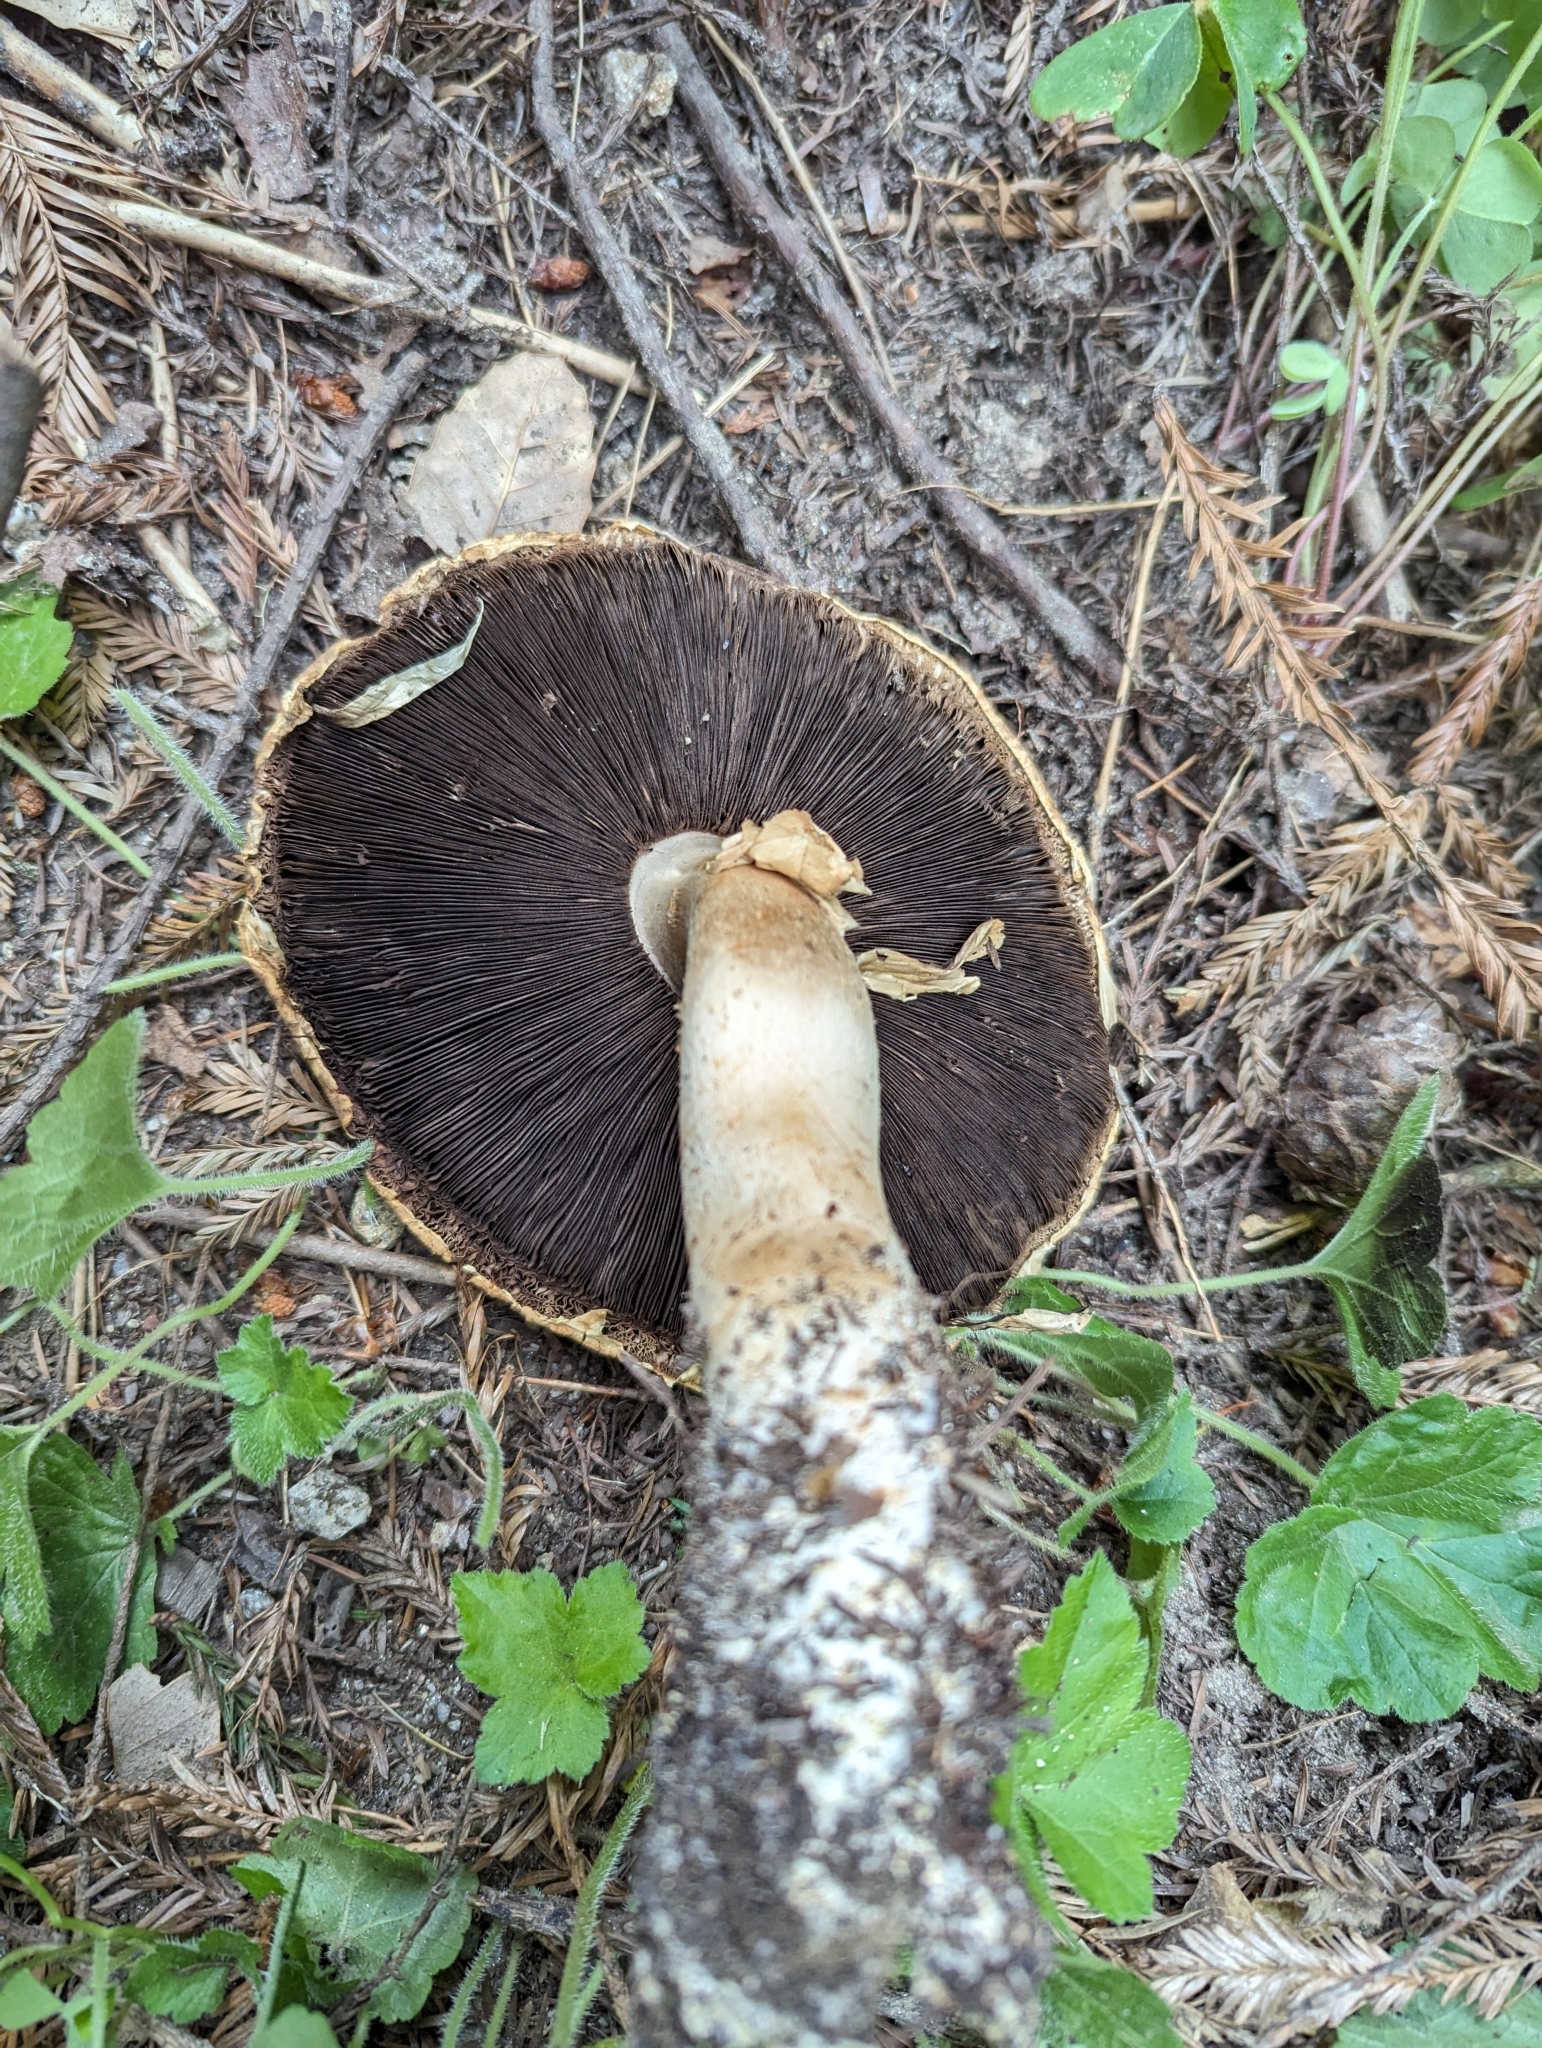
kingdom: Fungi
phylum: Basidiomycota
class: Agaricomycetes
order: Agaricales
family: Agaricaceae
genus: Agaricus
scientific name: Agaricus augustus
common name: Prince
